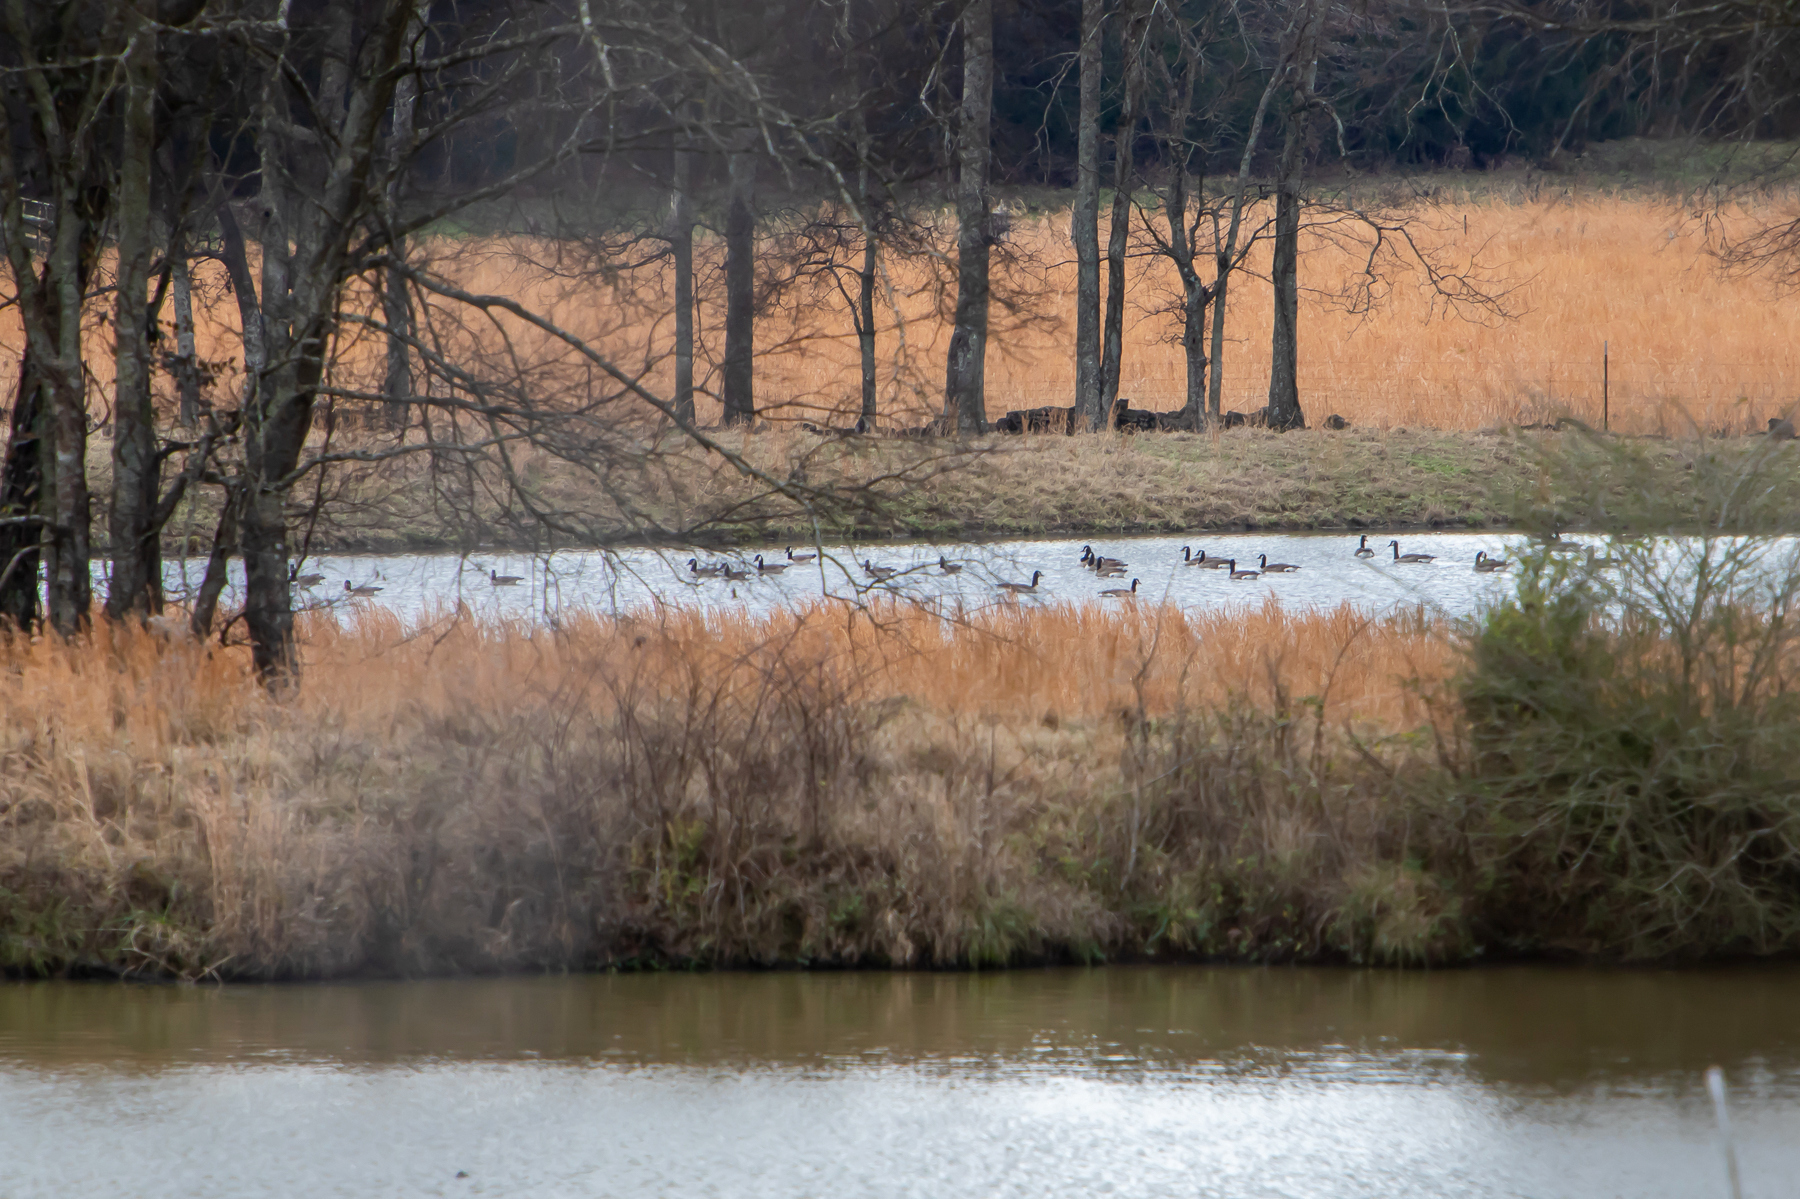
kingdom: Animalia
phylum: Chordata
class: Aves
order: Anseriformes
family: Anatidae
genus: Branta
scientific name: Branta canadensis
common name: Canada goose
